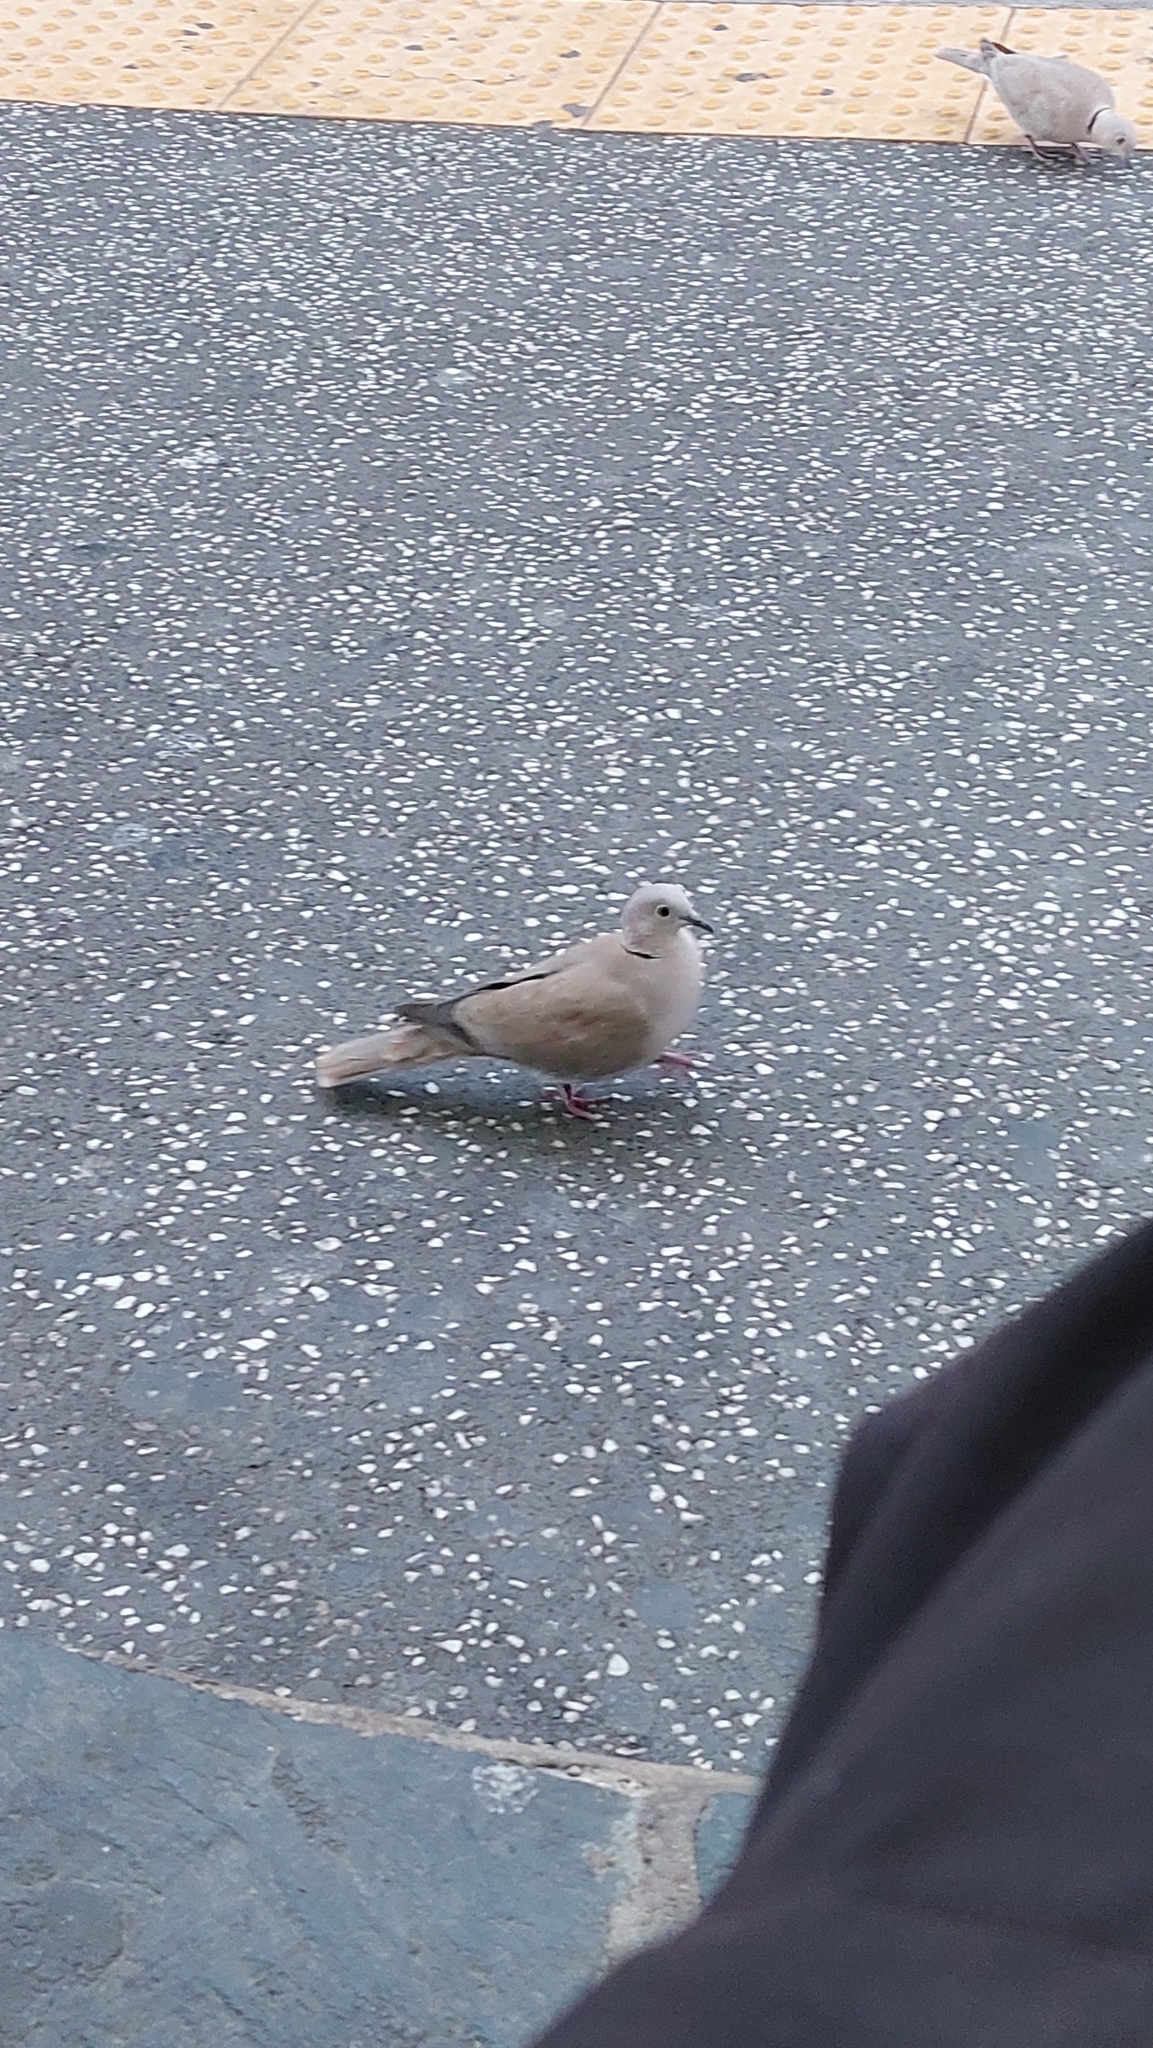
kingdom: Animalia
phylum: Chordata
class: Aves
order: Columbiformes
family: Columbidae
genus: Streptopelia
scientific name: Streptopelia decaocto
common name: Eurasian collared dove
